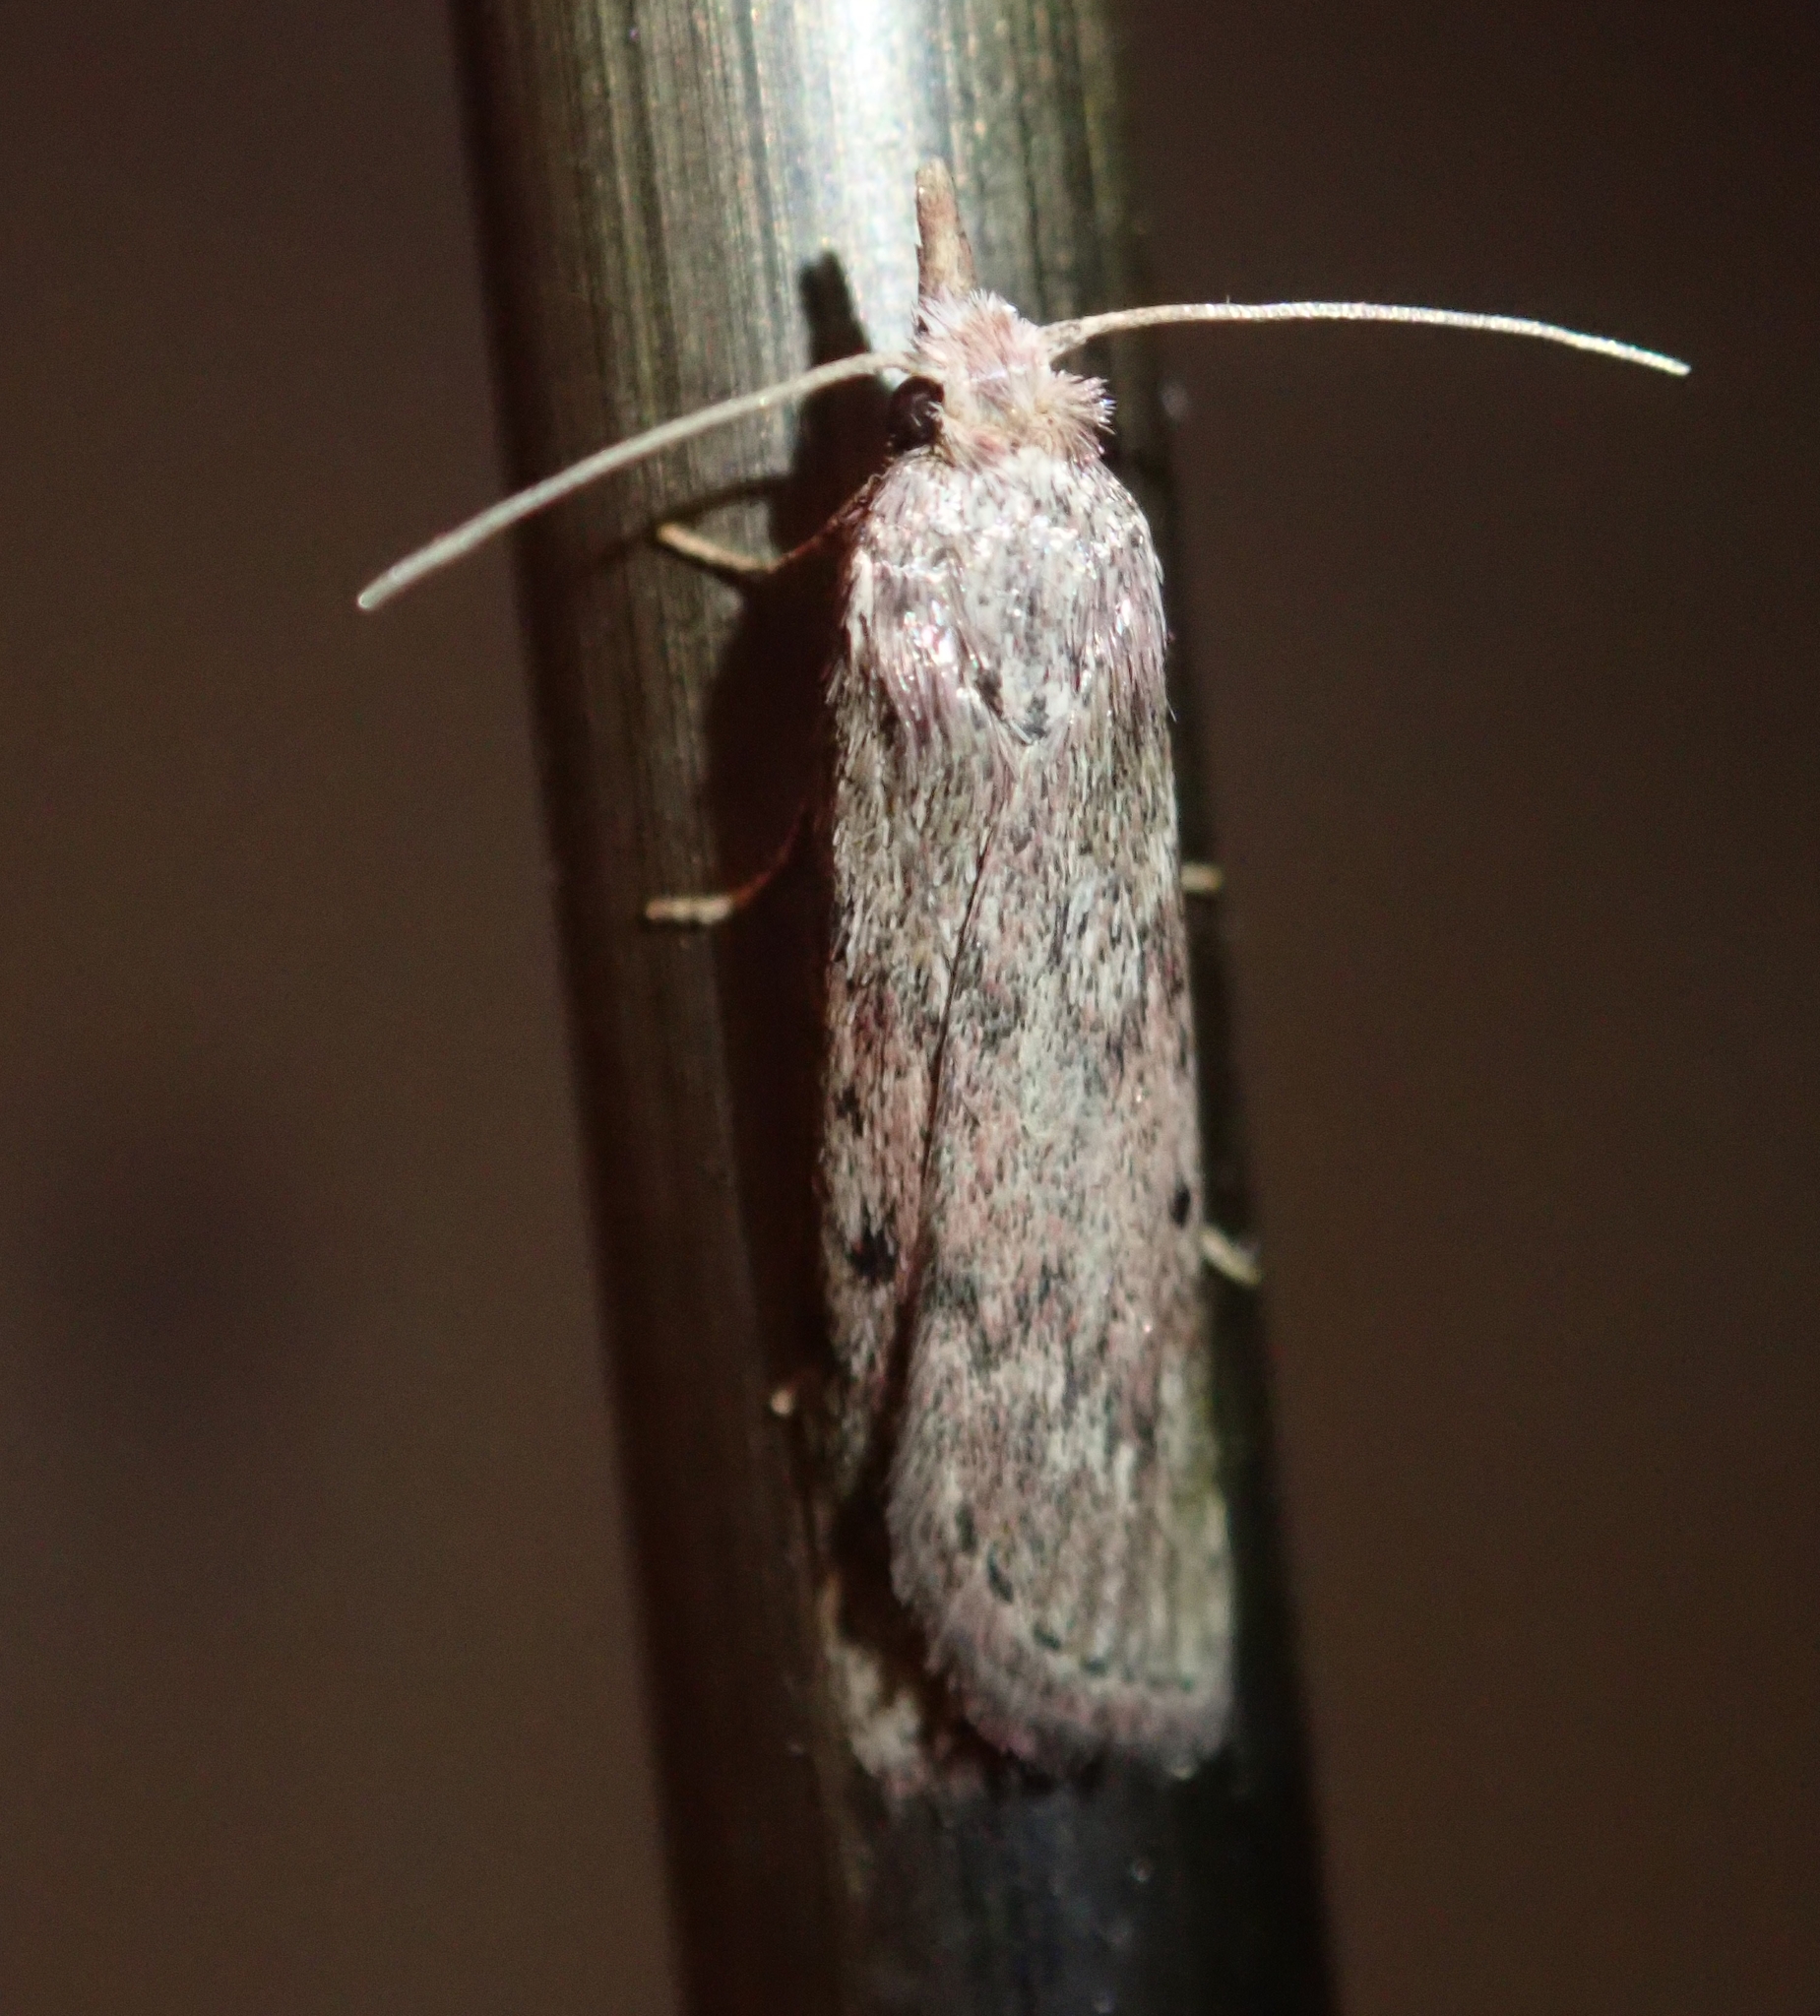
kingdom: Animalia
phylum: Arthropoda
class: Insecta
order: Lepidoptera
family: Pyralidae
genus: Aphomia
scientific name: Aphomia sociella
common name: Bee moth
